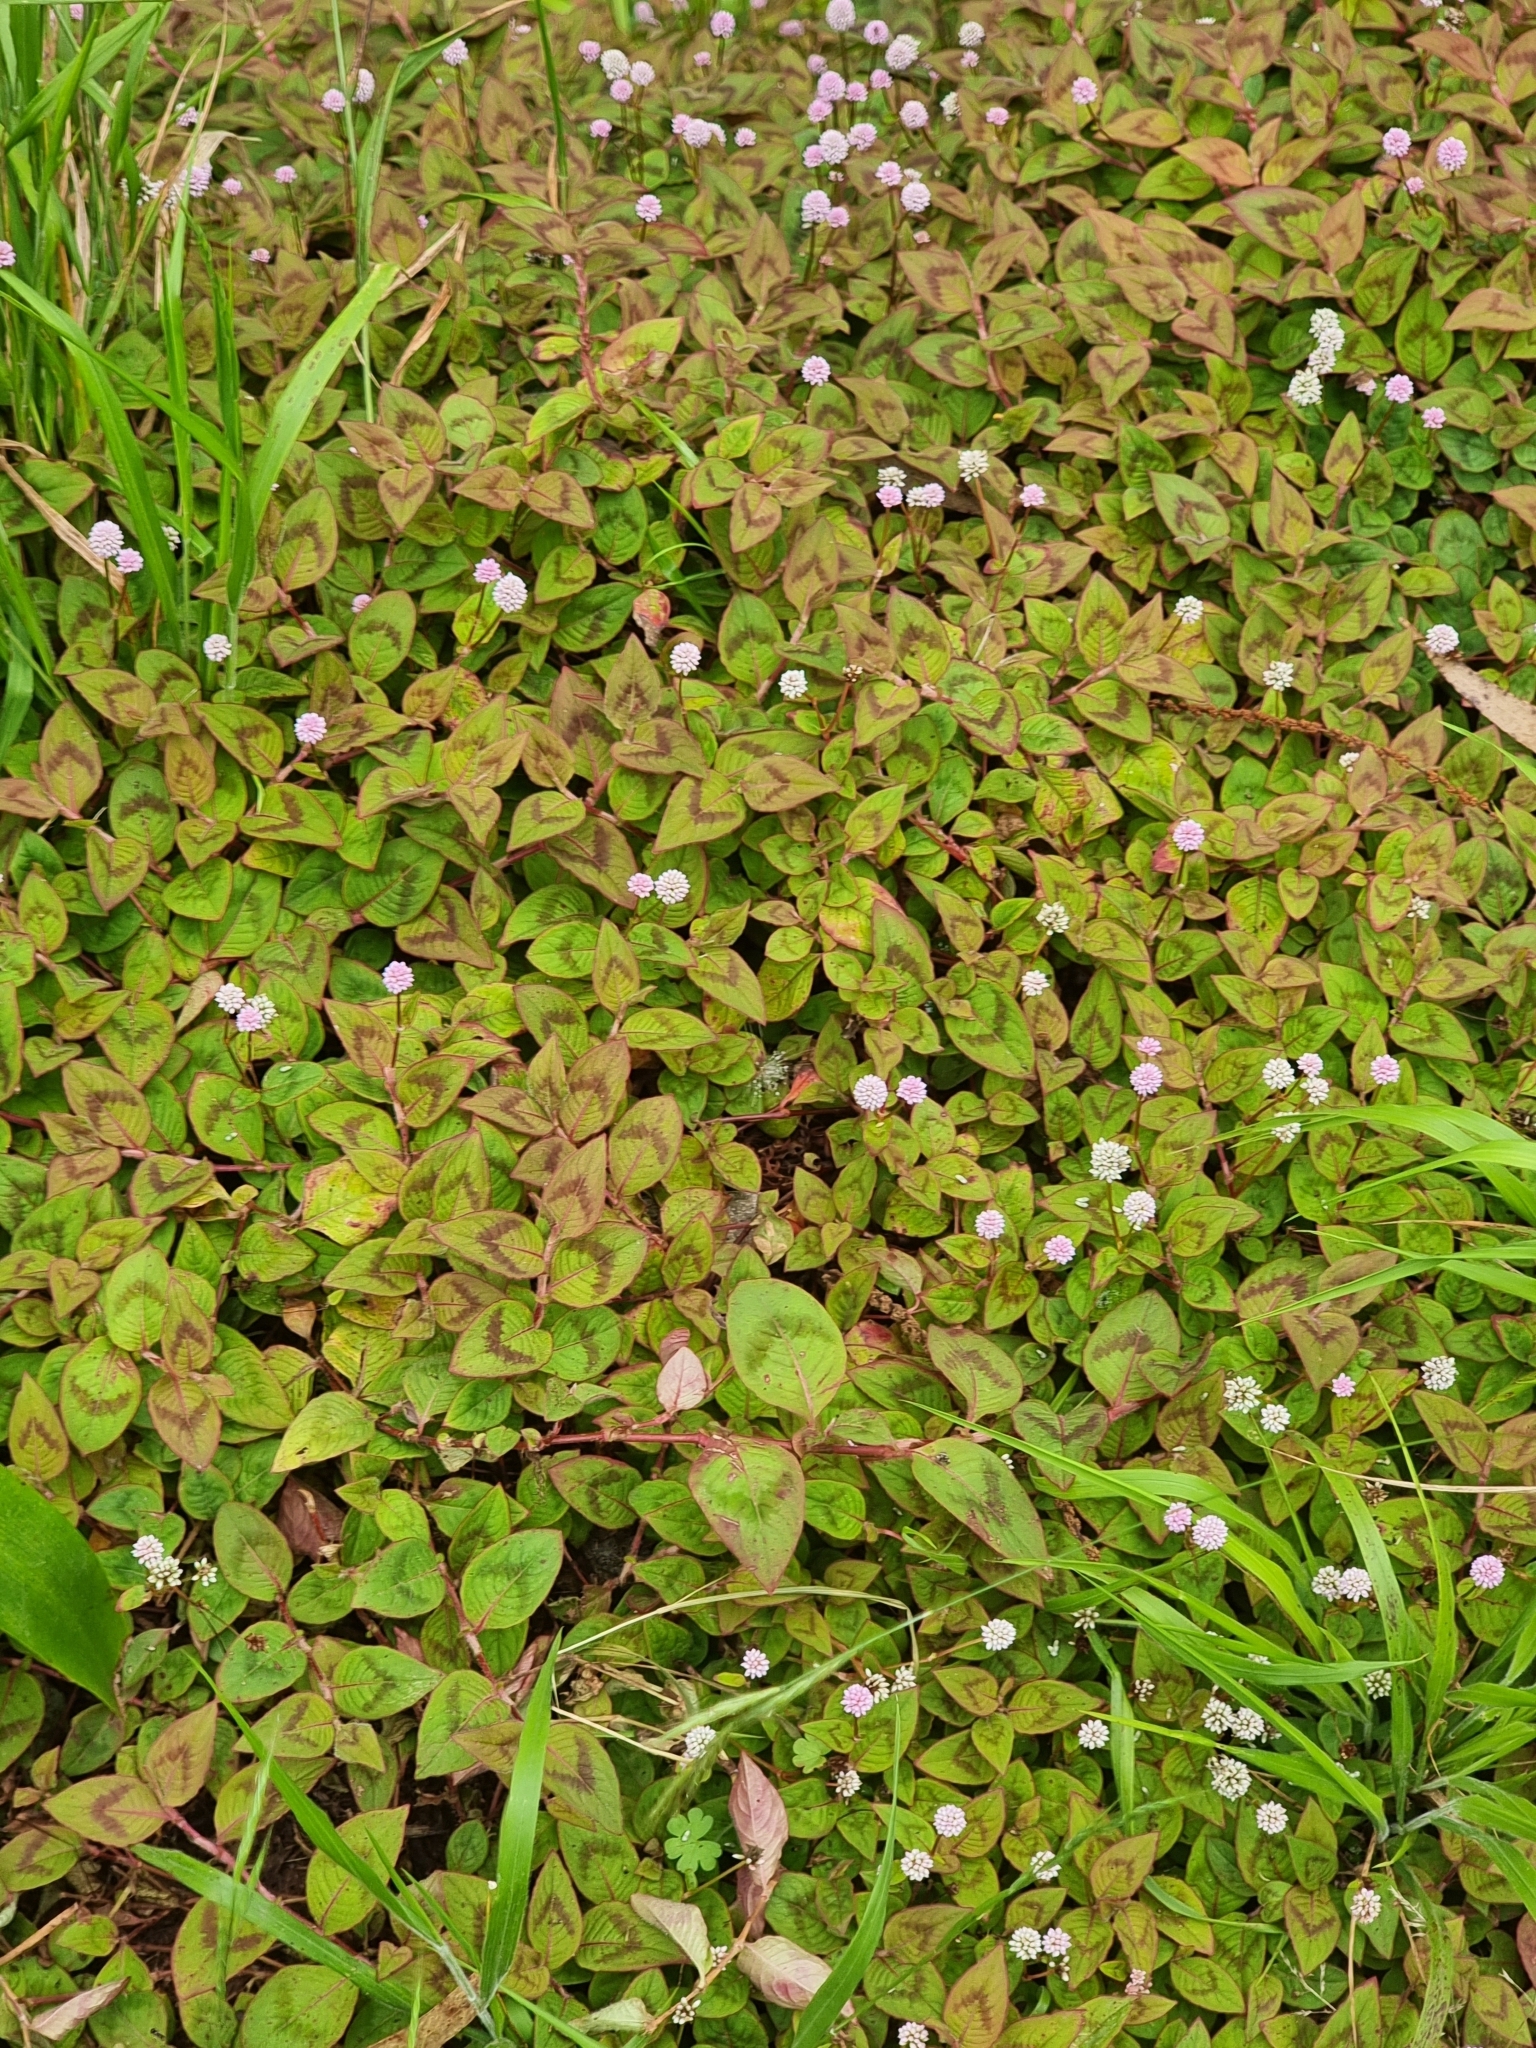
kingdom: Plantae
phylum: Tracheophyta
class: Magnoliopsida
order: Caryophyllales
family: Polygonaceae
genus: Persicaria
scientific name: Persicaria capitata
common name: Pinkhead smartweed
